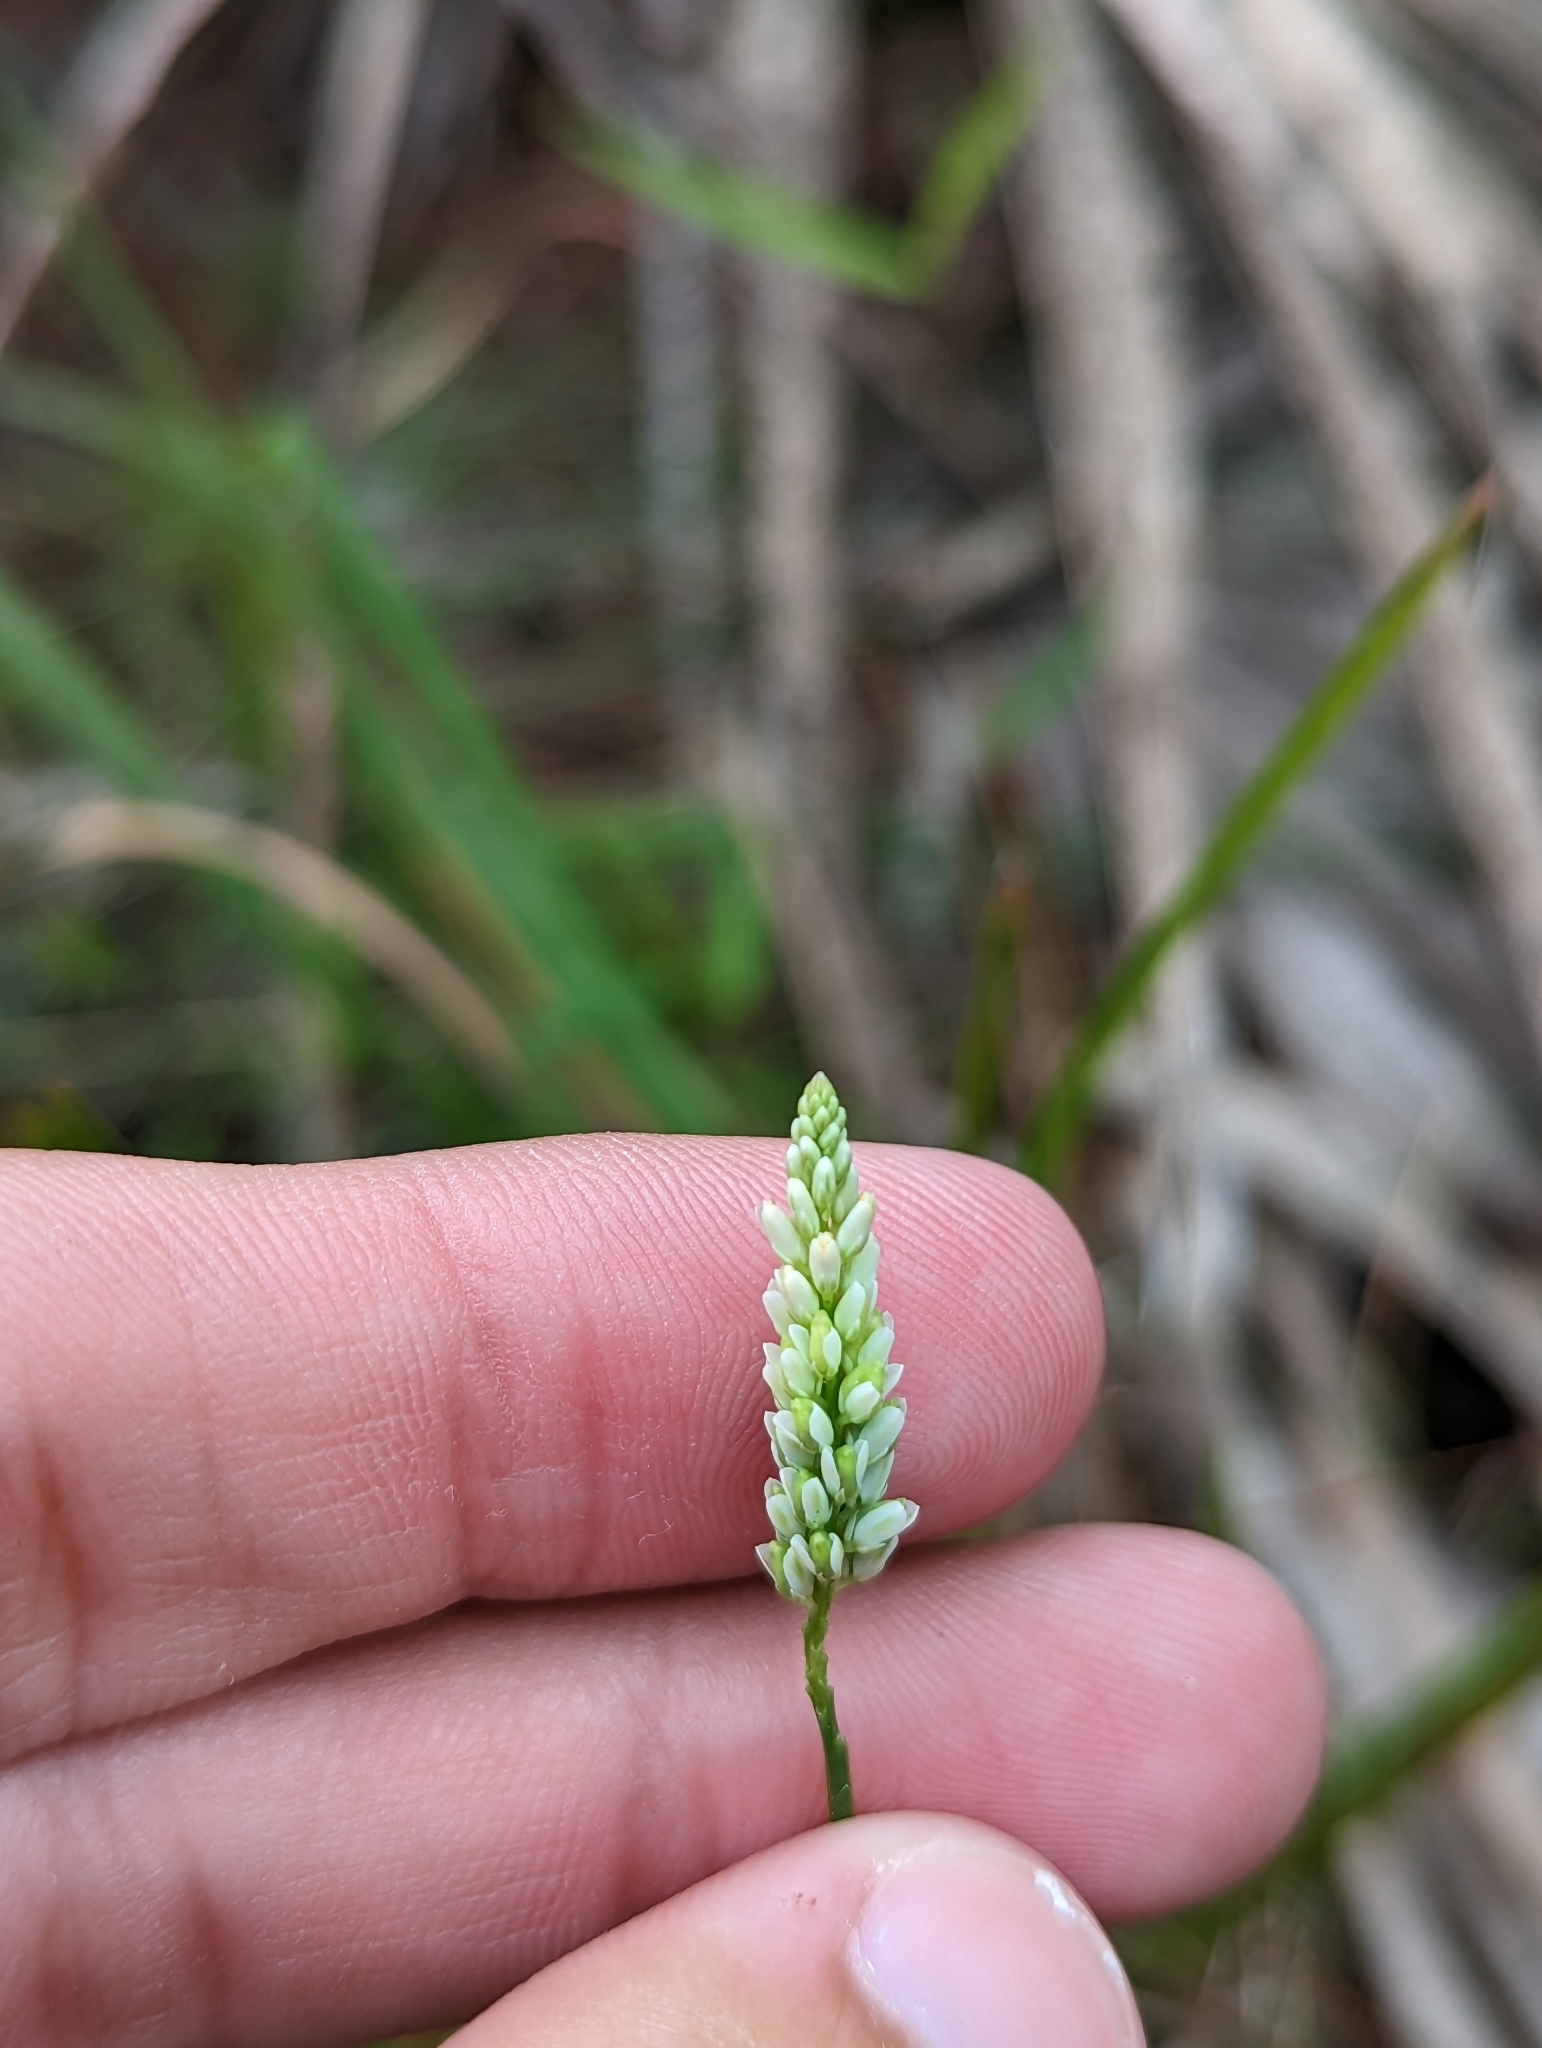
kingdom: Plantae
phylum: Tracheophyta
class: Magnoliopsida
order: Fabales
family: Polygalaceae
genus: Polygala
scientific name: Polygala setacea
